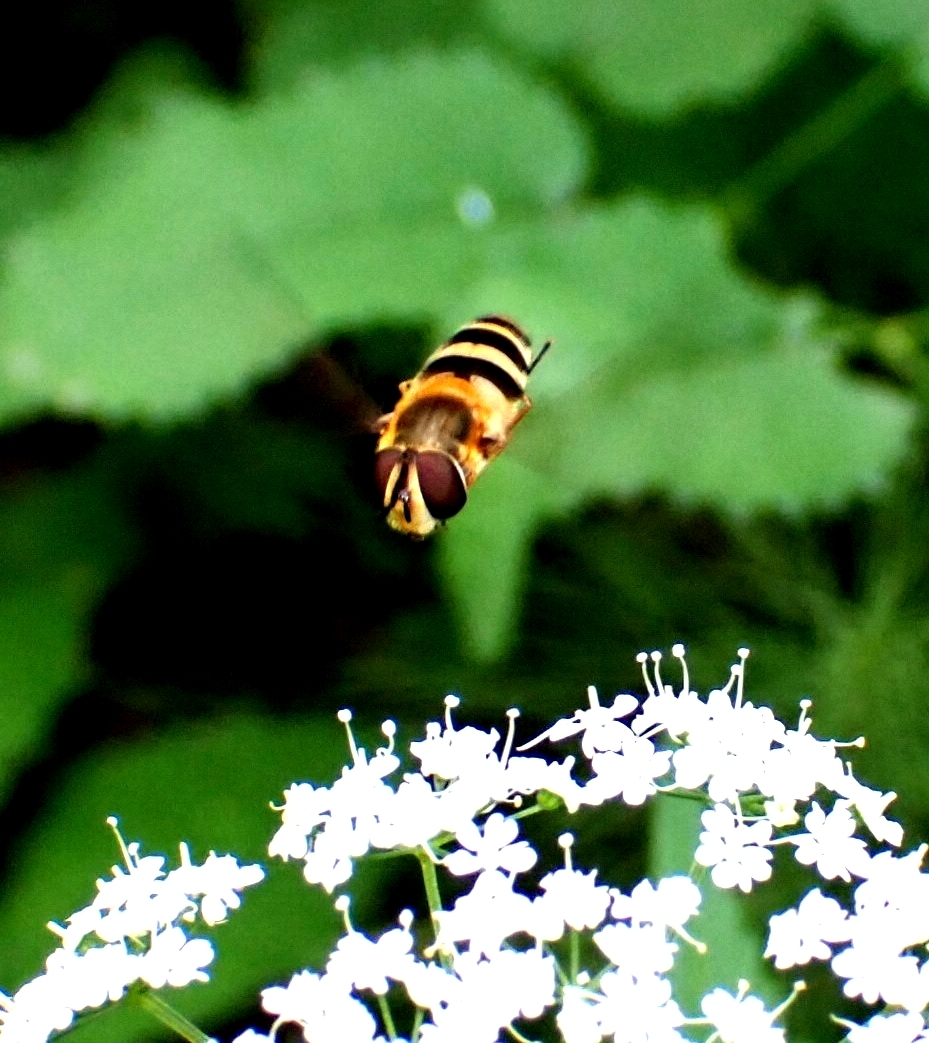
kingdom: Animalia
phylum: Arthropoda
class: Insecta
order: Diptera
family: Syrphidae
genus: Epistrophe
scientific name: Epistrophe grossulariae
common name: Black-horned smoothtail
